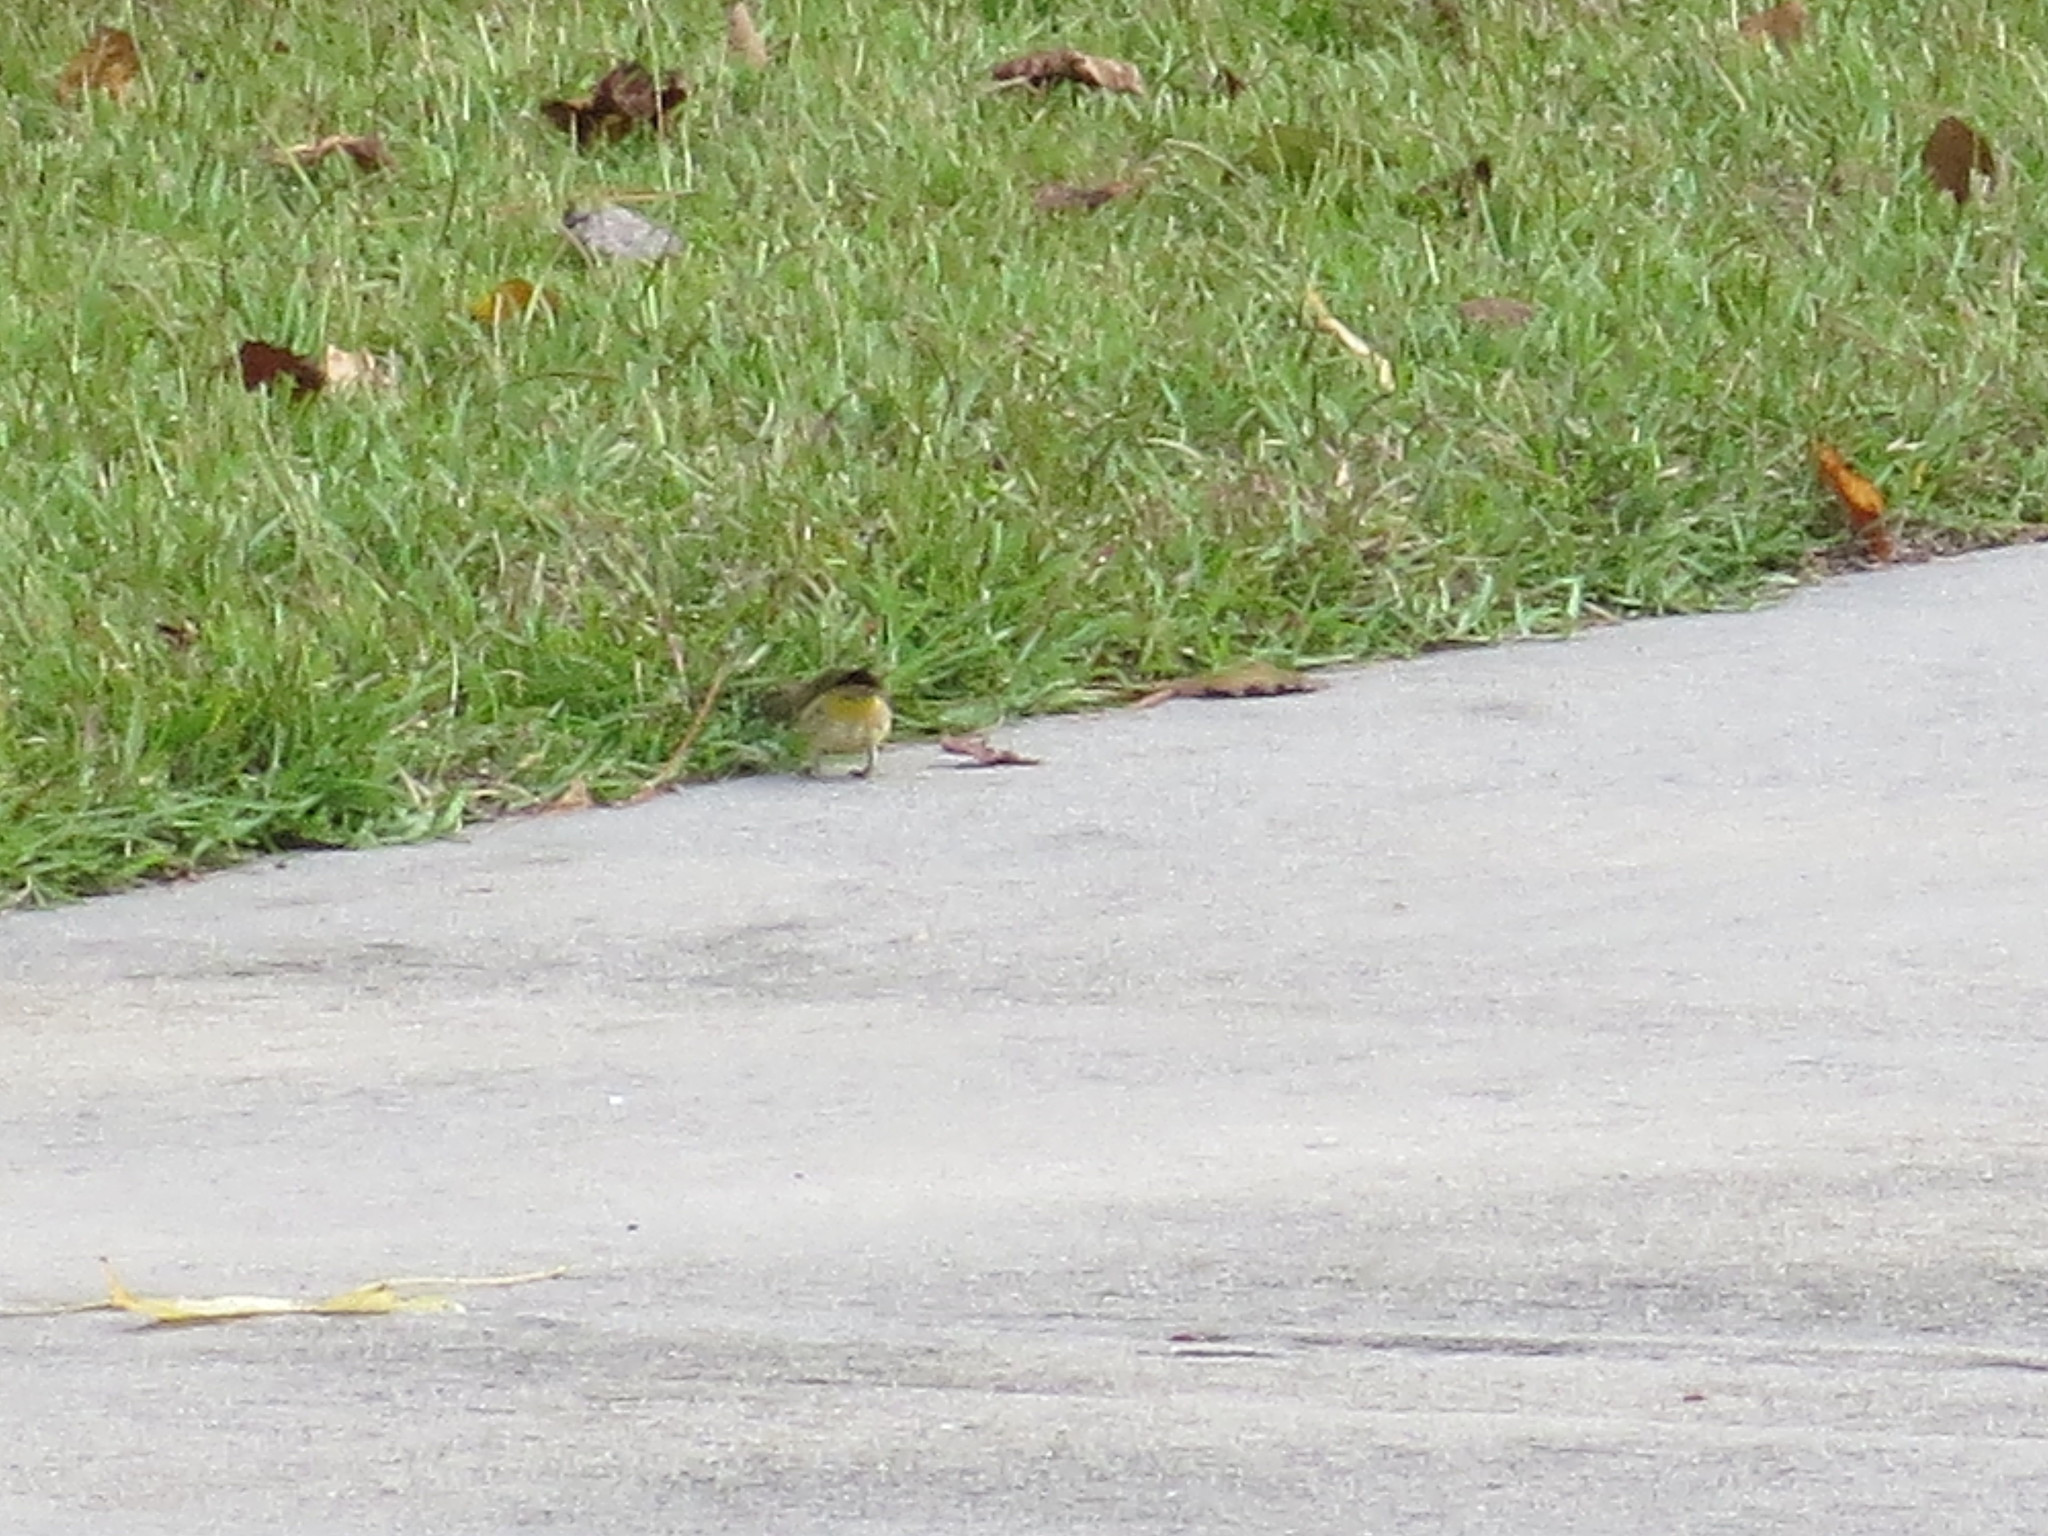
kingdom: Animalia
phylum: Chordata
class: Aves
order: Passeriformes
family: Parulidae
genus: Setophaga
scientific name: Setophaga palmarum
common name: Palm warbler
